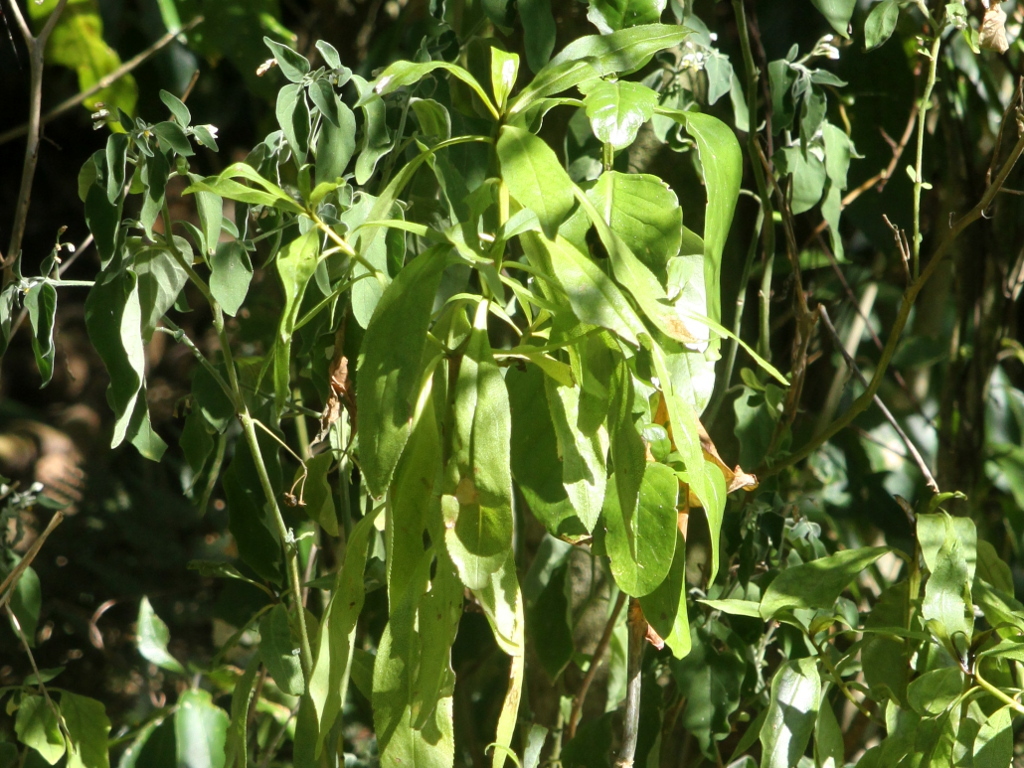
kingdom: Plantae
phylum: Tracheophyta
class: Magnoliopsida
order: Lamiales
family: Scrophulariaceae
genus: Myoporum
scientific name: Myoporum laetum
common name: Ngaio tree
